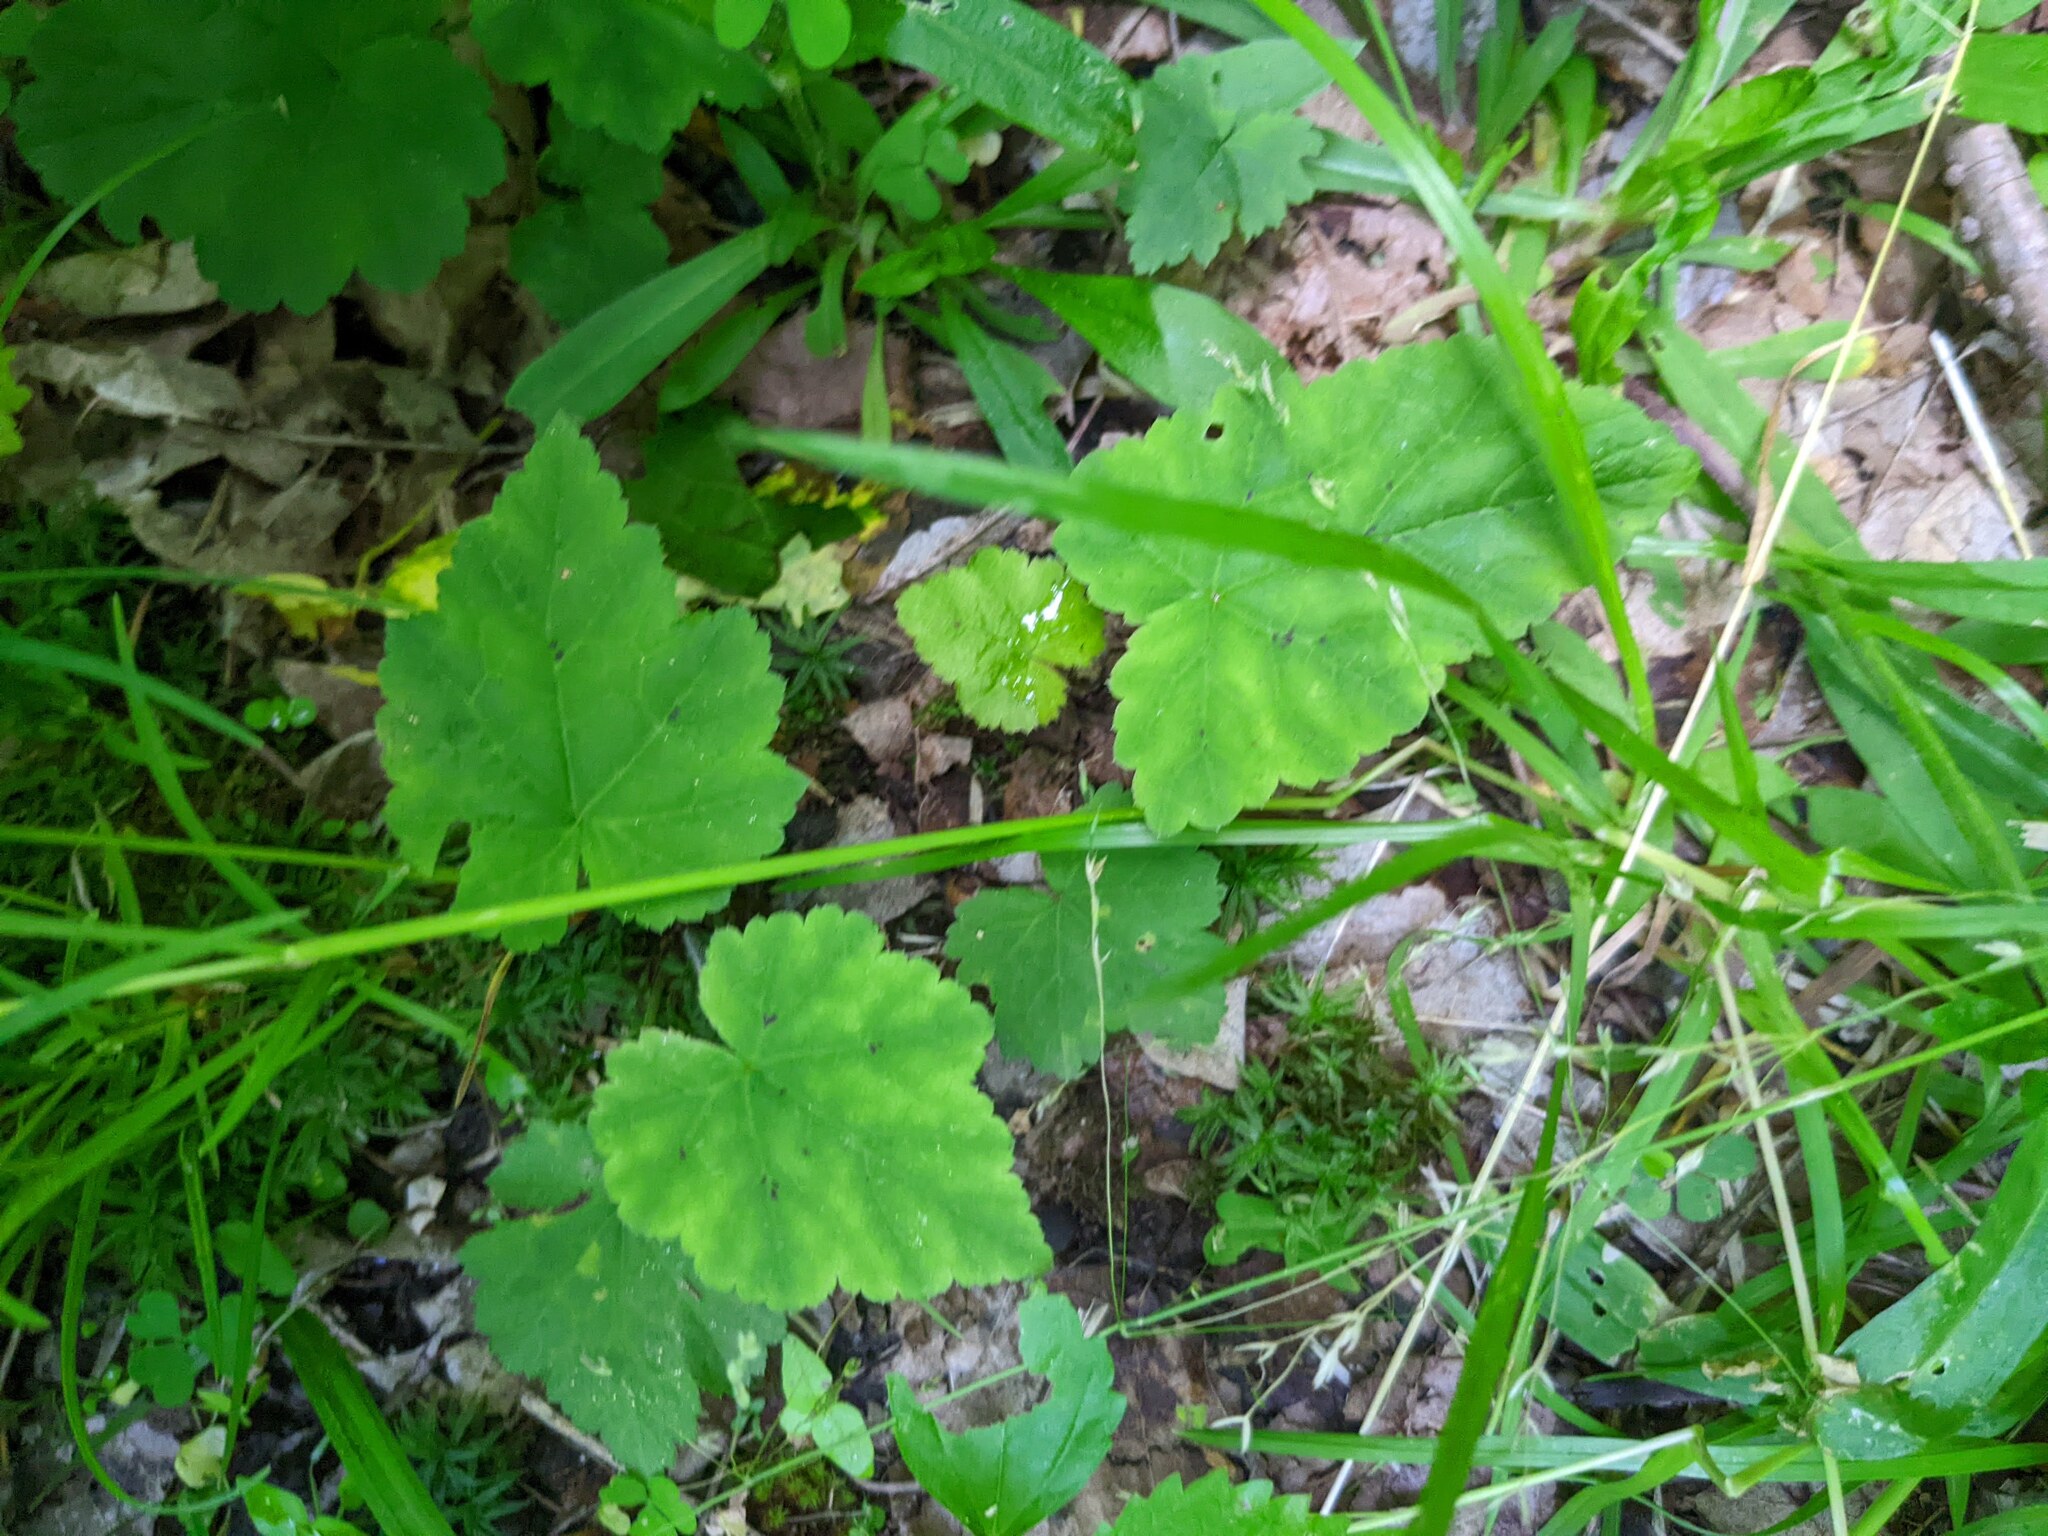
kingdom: Plantae
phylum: Tracheophyta
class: Magnoliopsida
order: Saxifragales
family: Saxifragaceae
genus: Tiarella
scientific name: Tiarella stolonifera
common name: Stoloniferous foamflower
